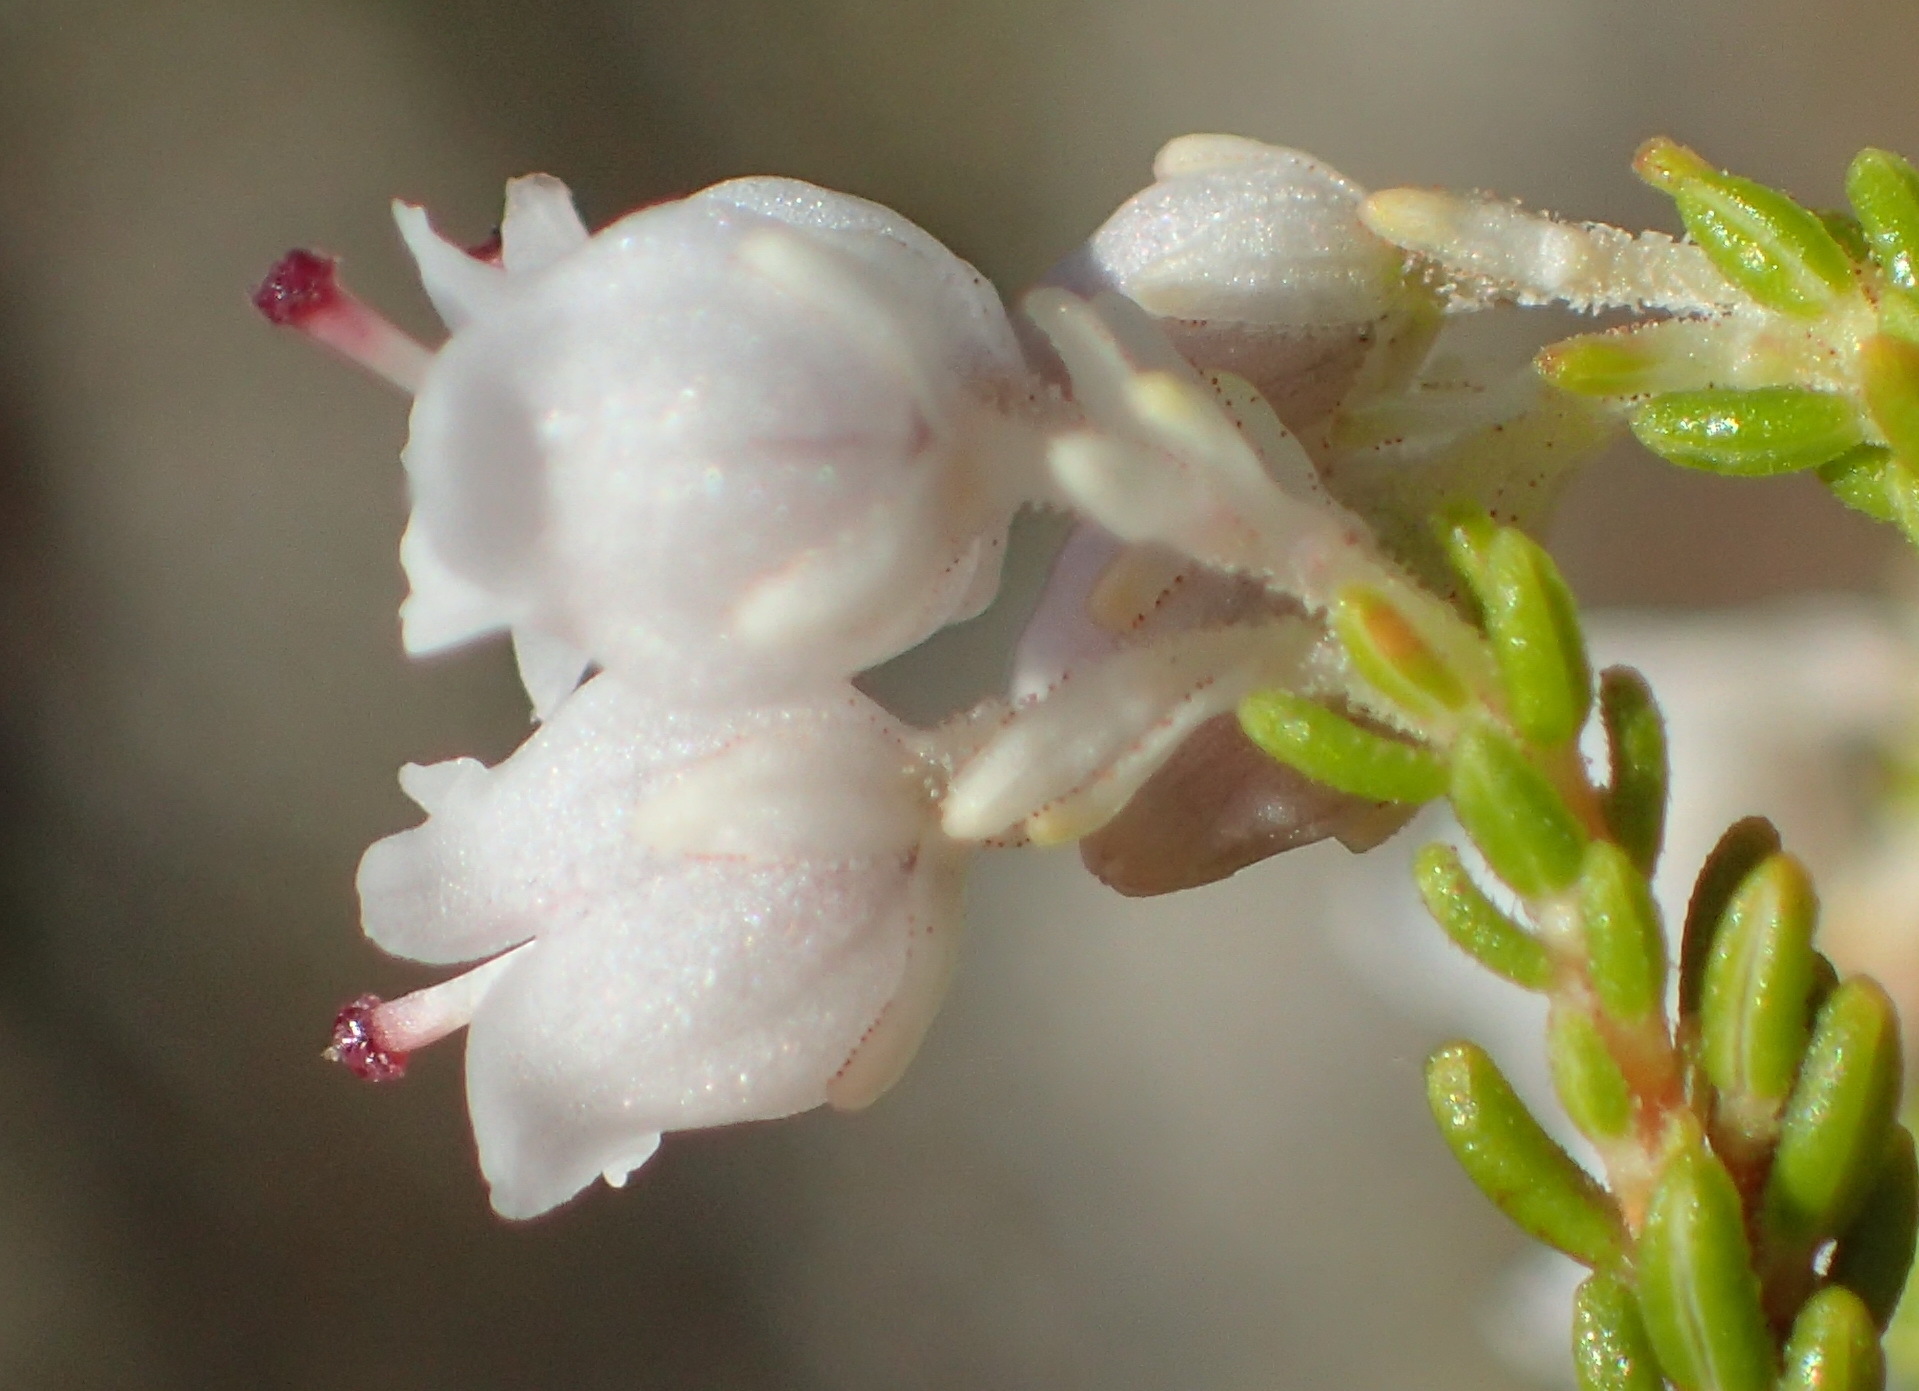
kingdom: Plantae
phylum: Tracheophyta
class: Magnoliopsida
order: Ericales
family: Ericaceae
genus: Erica
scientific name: Erica syngenesia
